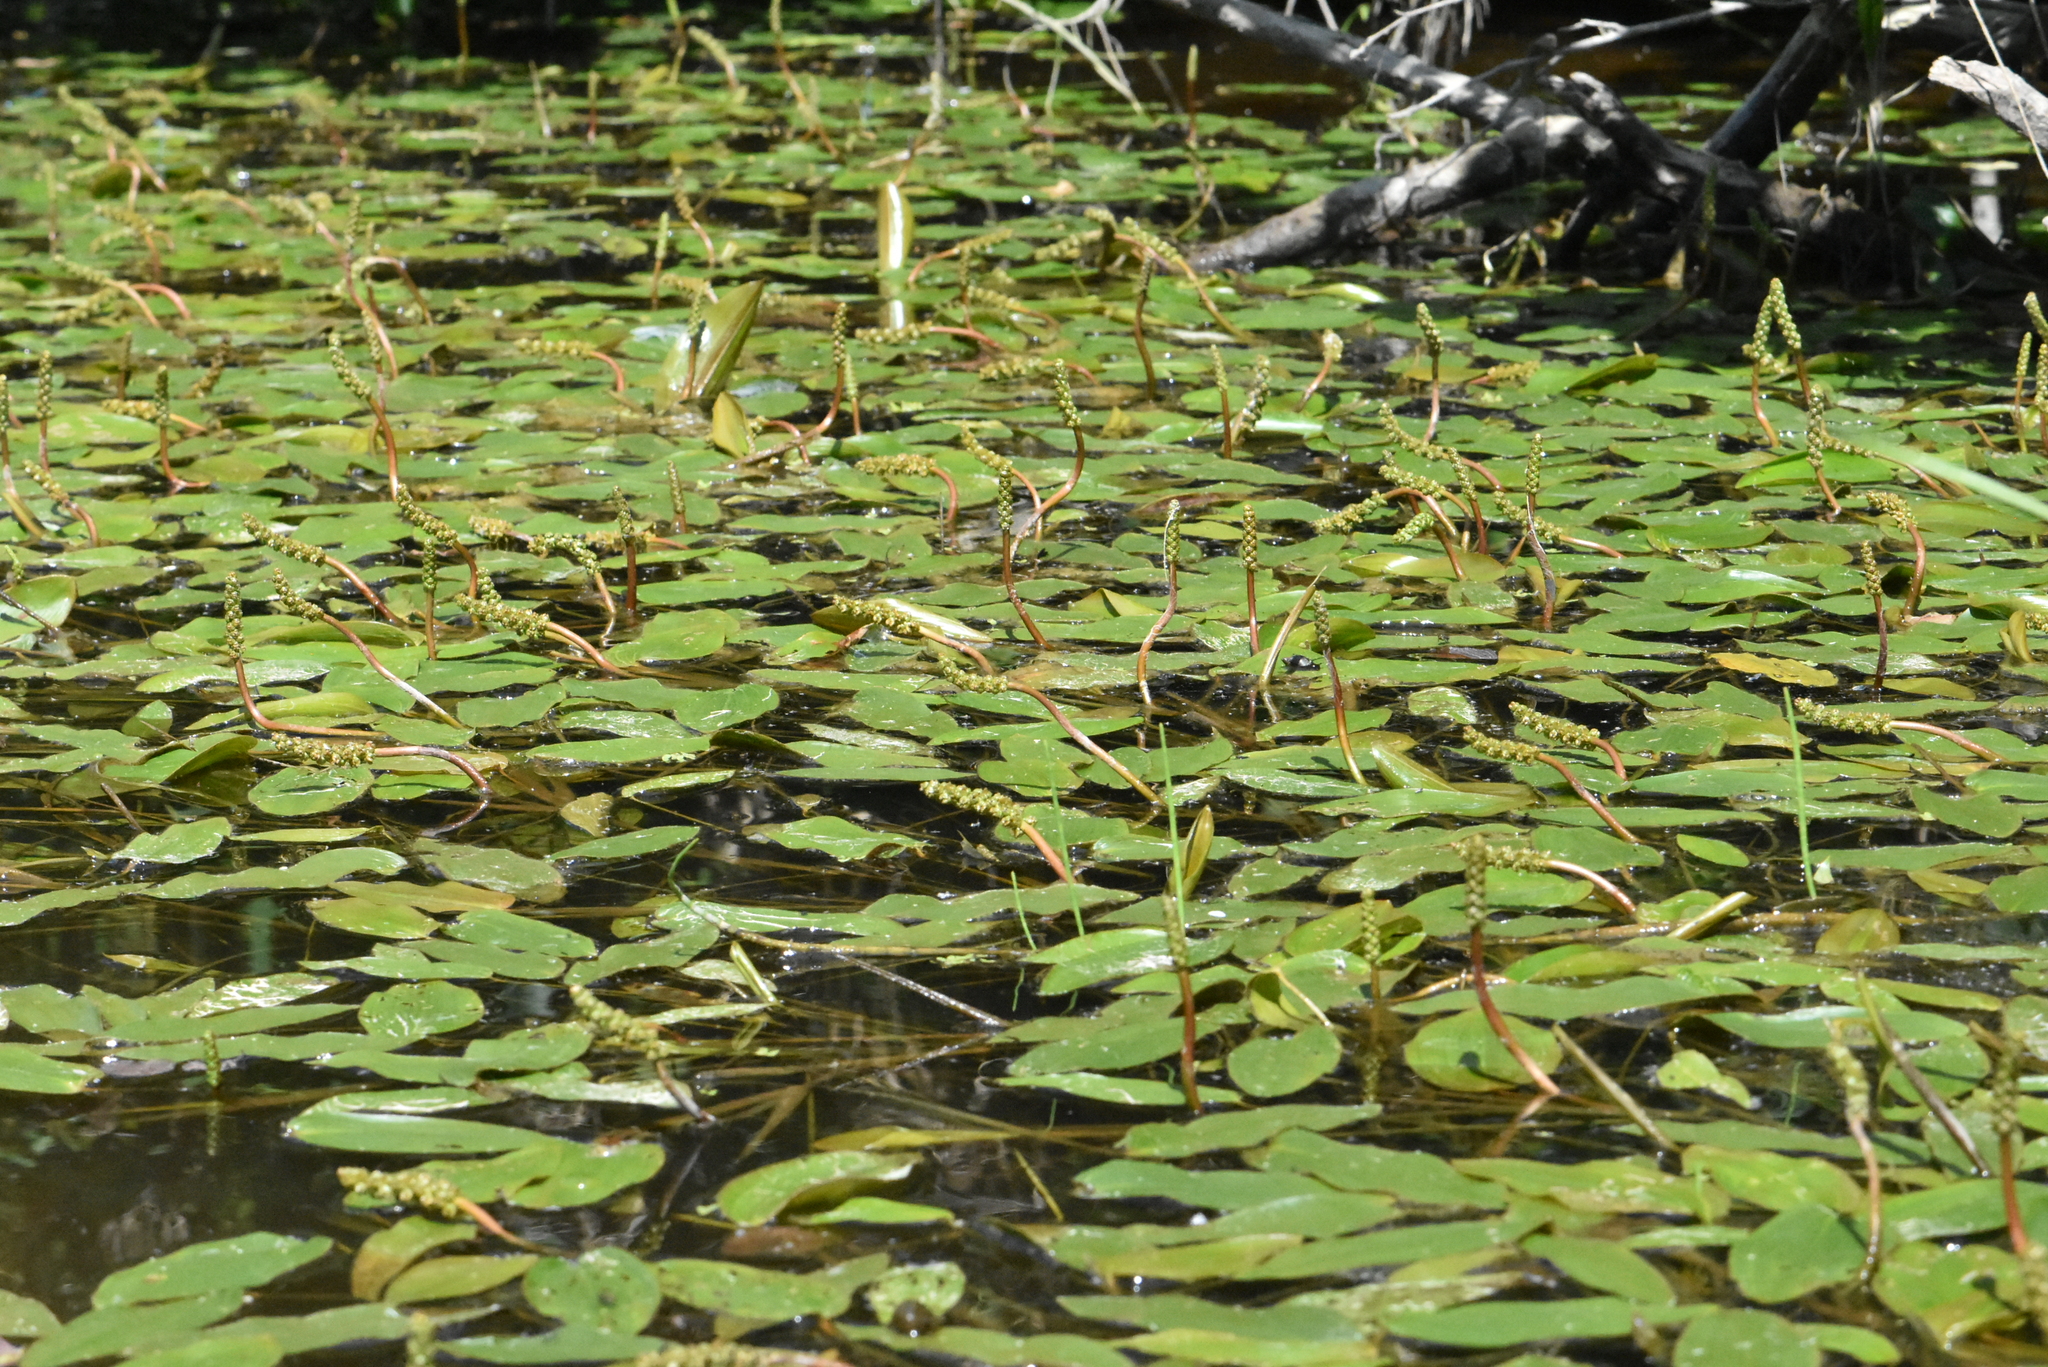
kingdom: Plantae
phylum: Tracheophyta
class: Liliopsida
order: Alismatales
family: Potamogetonaceae
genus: Potamogeton
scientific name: Potamogeton natans
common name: Broad-leaved pondweed
